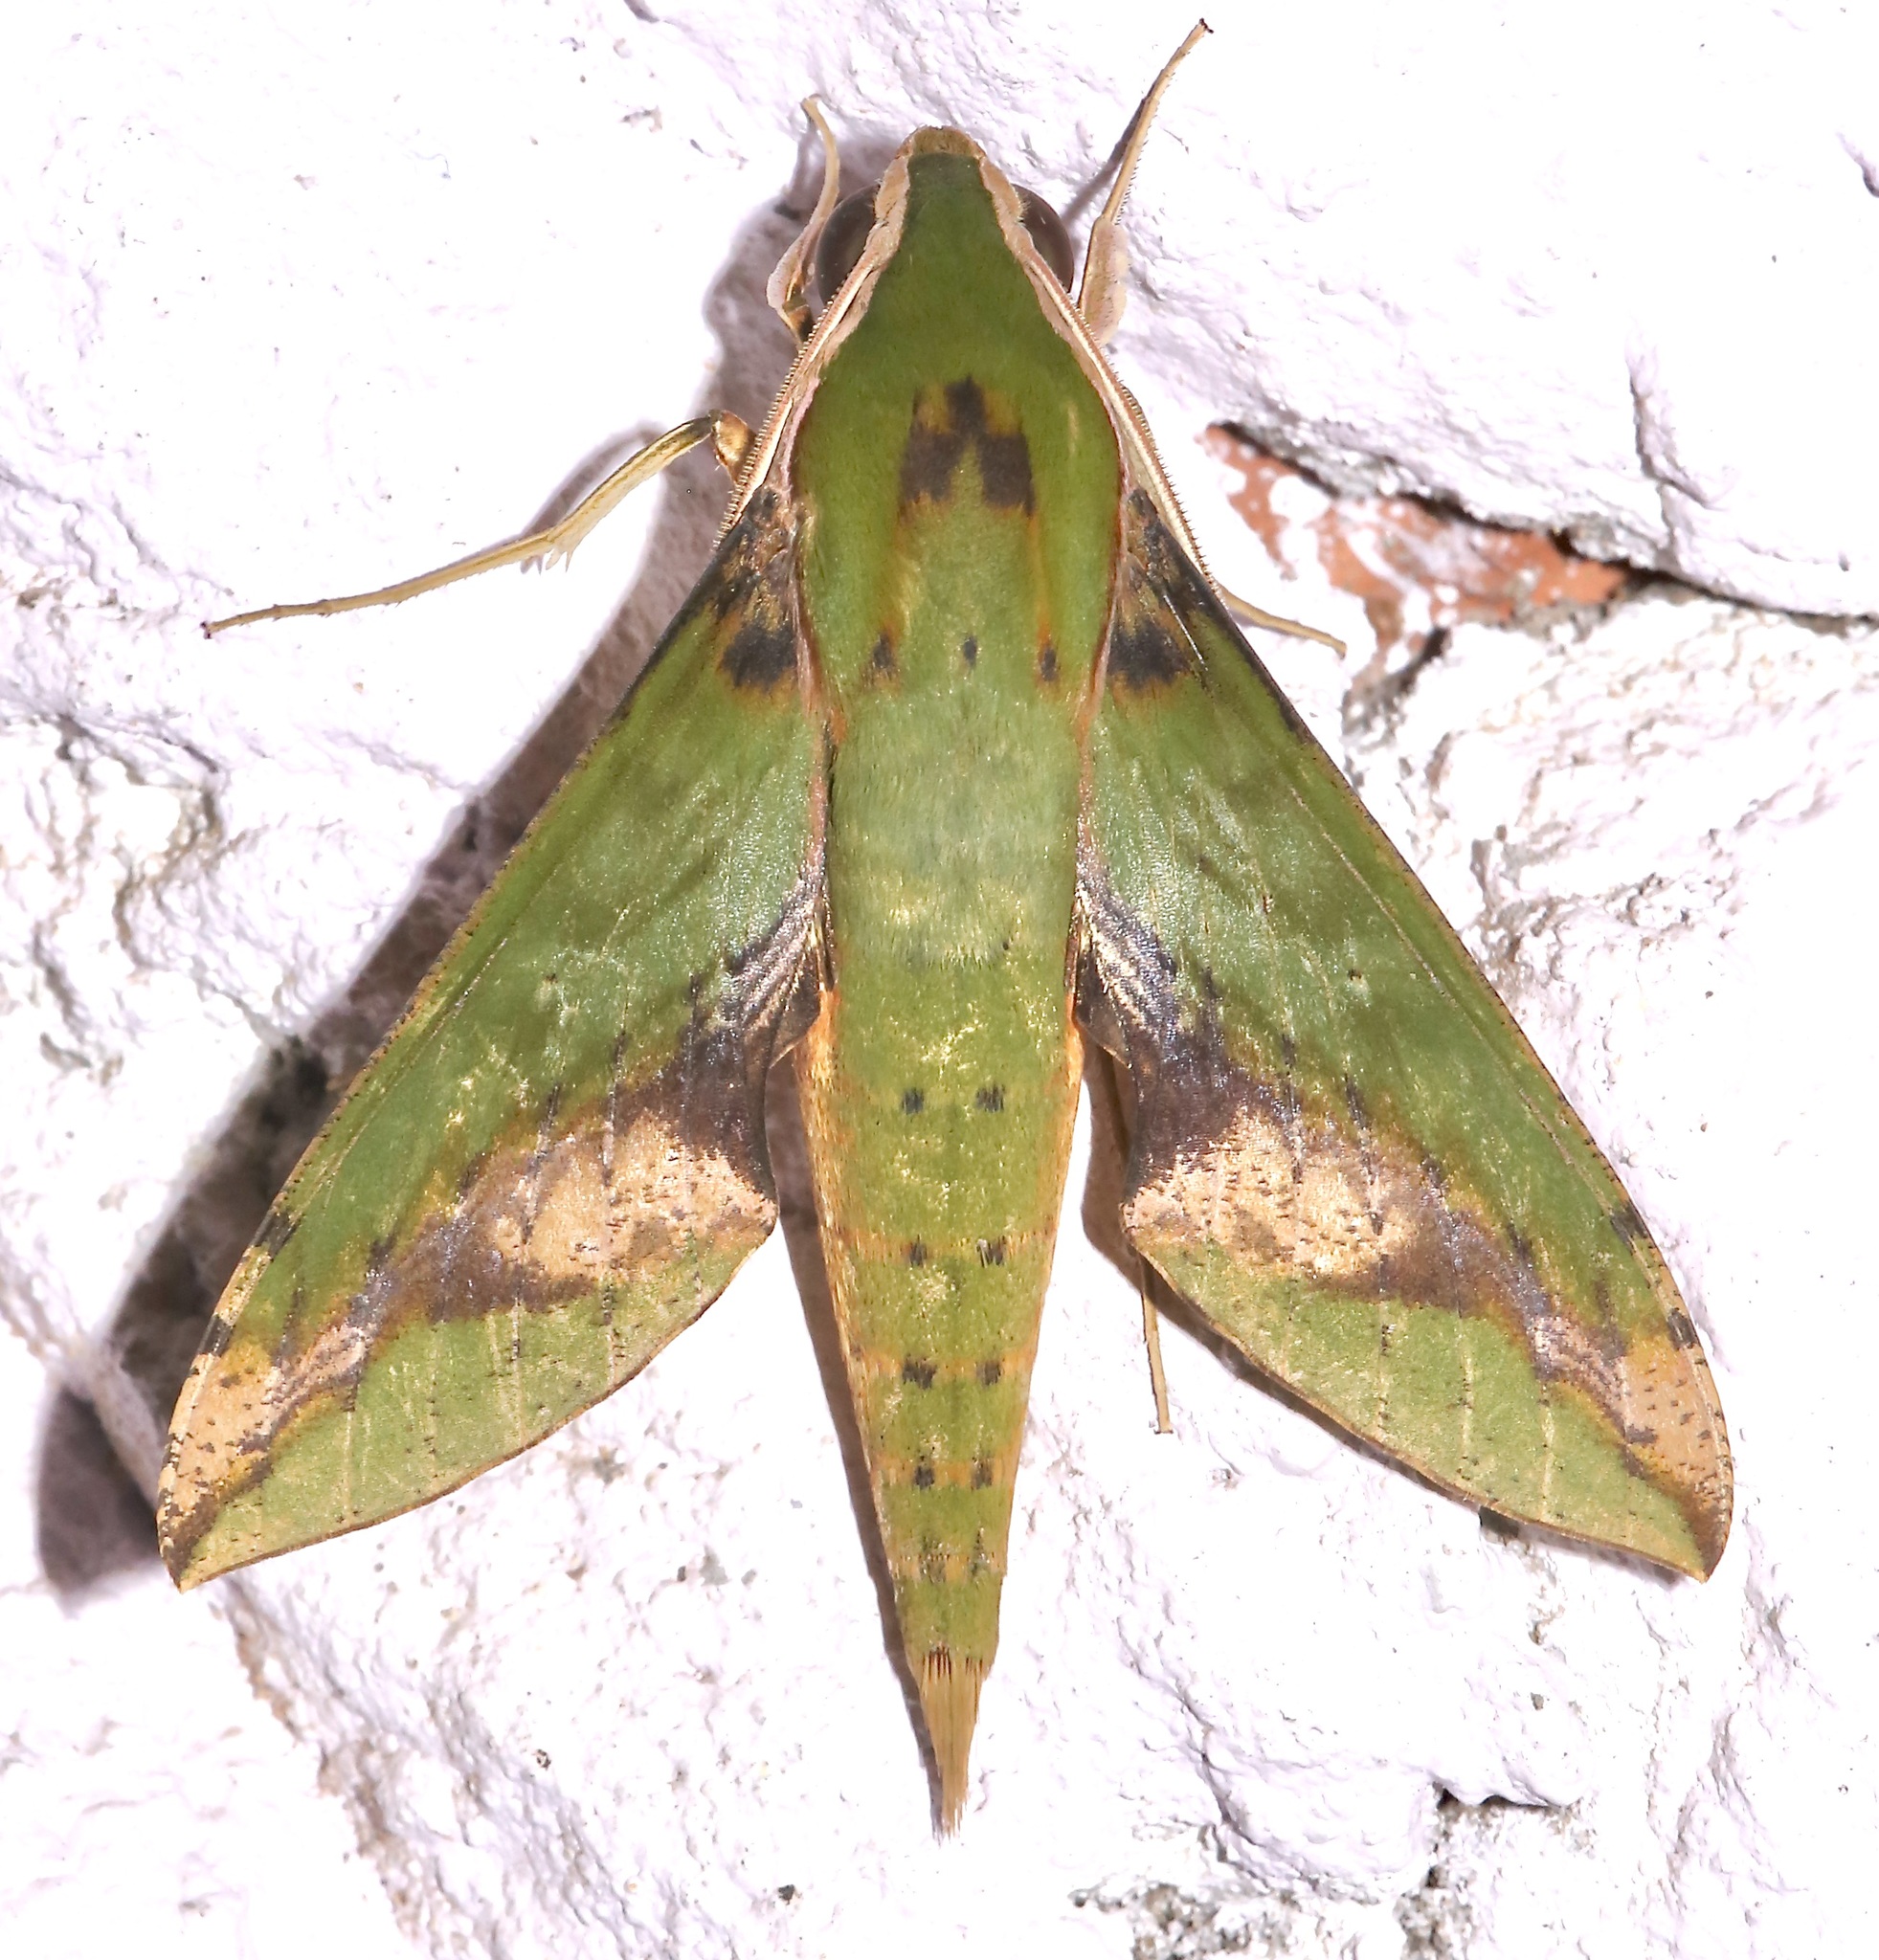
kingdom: Animalia
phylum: Arthropoda
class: Insecta
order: Lepidoptera
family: Sphingidae
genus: Xylophanes
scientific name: Xylophanes chiron
